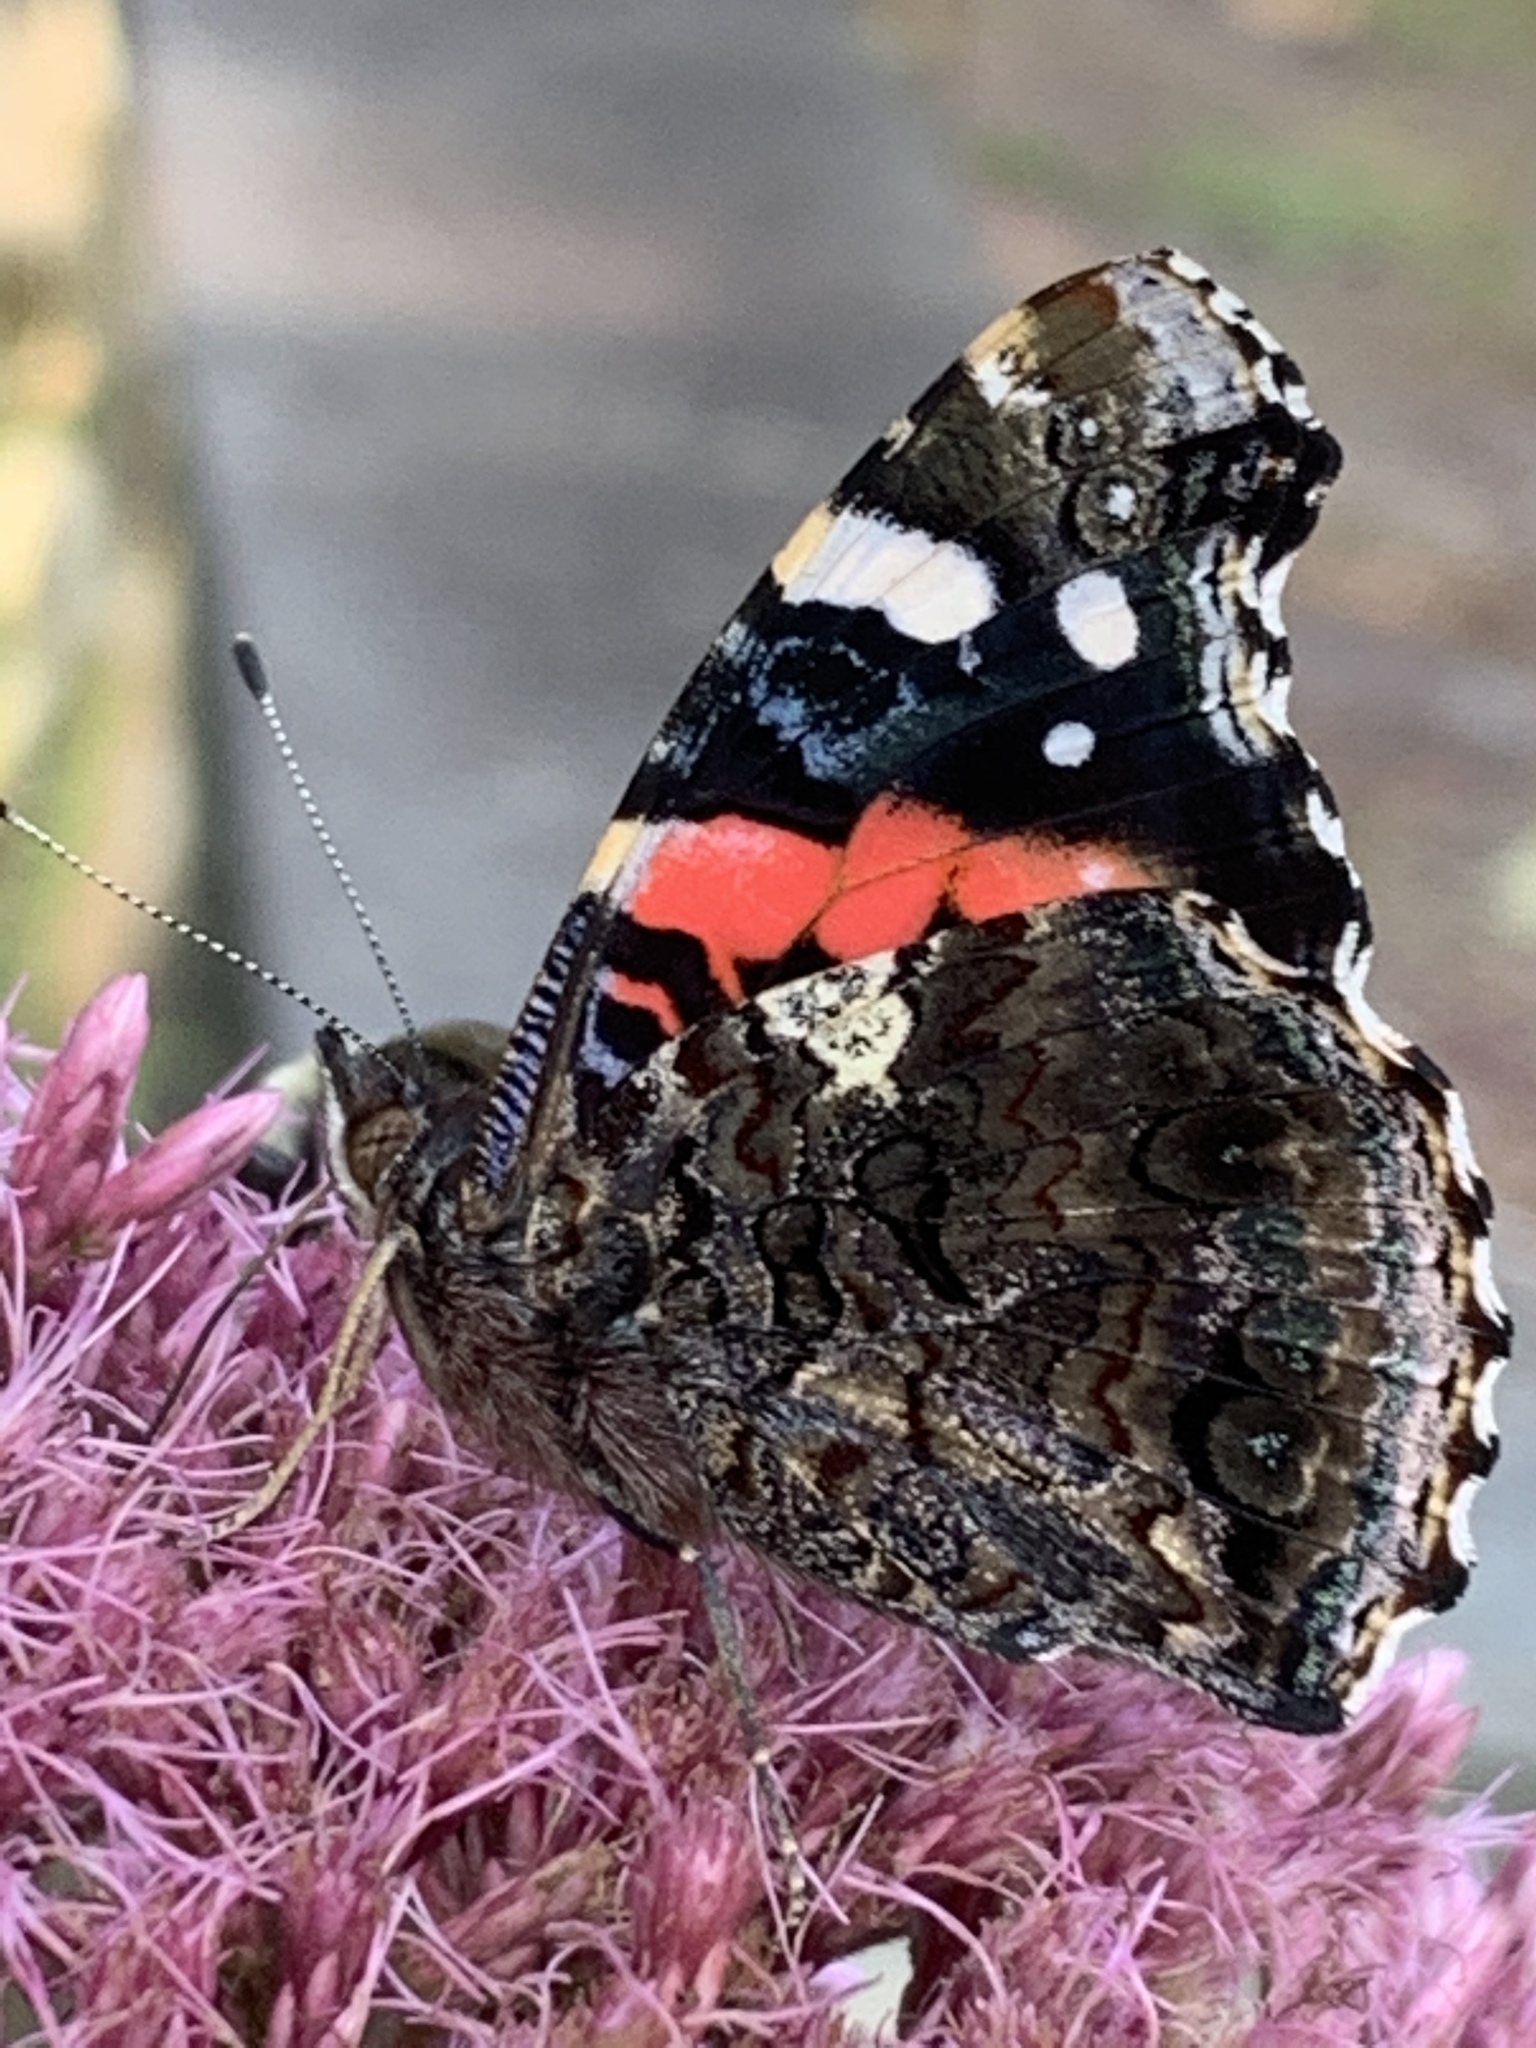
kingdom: Animalia
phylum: Arthropoda
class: Insecta
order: Lepidoptera
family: Nymphalidae
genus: Vanessa
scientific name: Vanessa atalanta
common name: Red admiral
